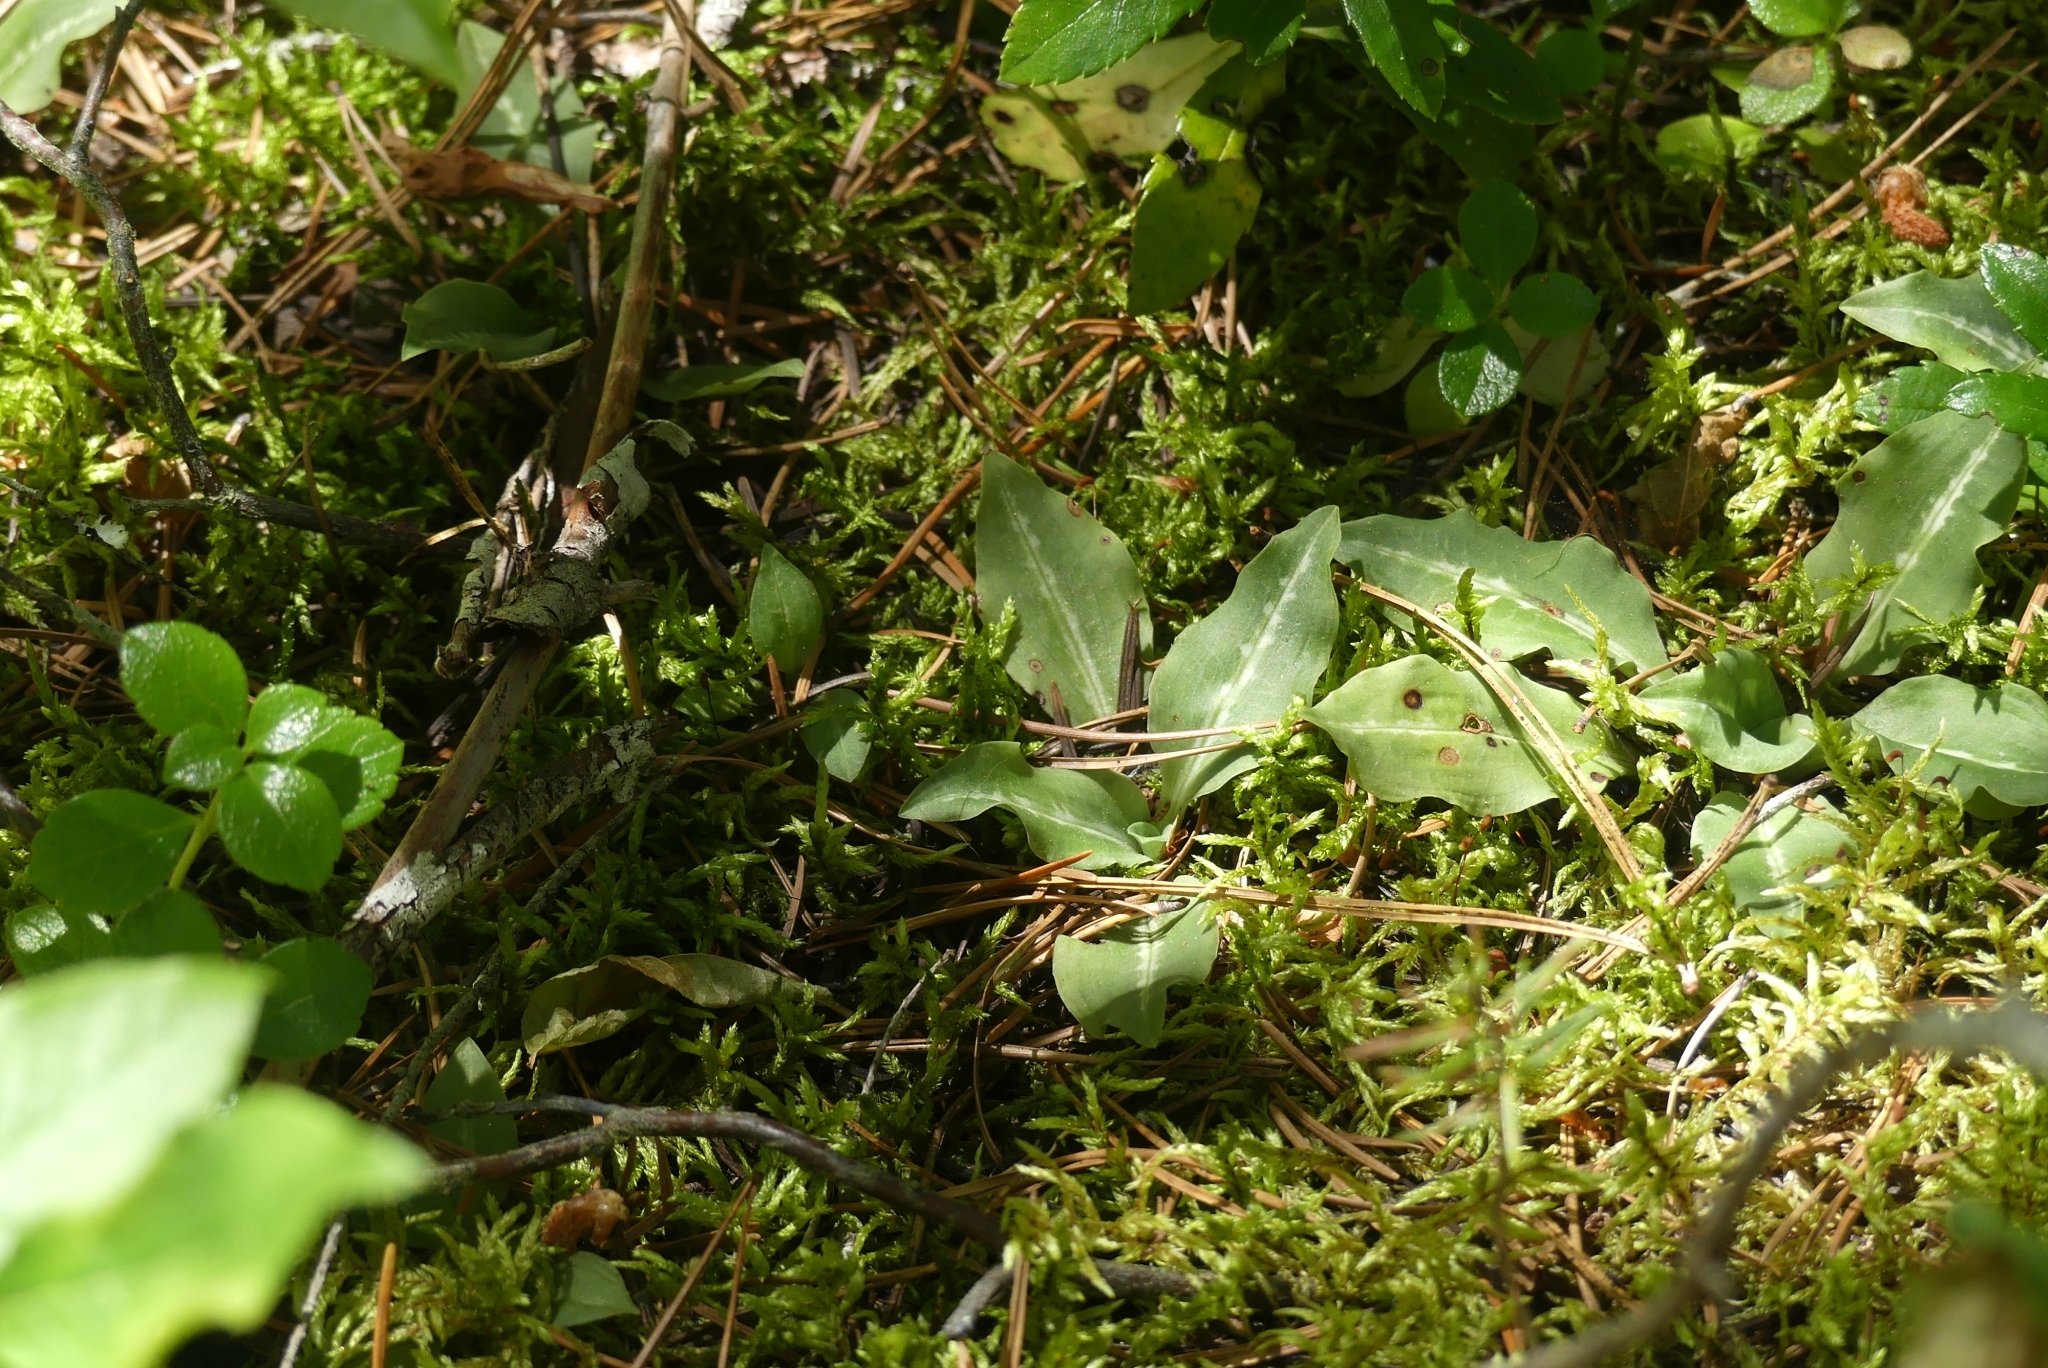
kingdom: Plantae
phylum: Tracheophyta
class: Liliopsida
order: Asparagales
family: Orchidaceae
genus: Goodyera
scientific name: Goodyera oblongifolia
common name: Giant rattlesnake-plantain
